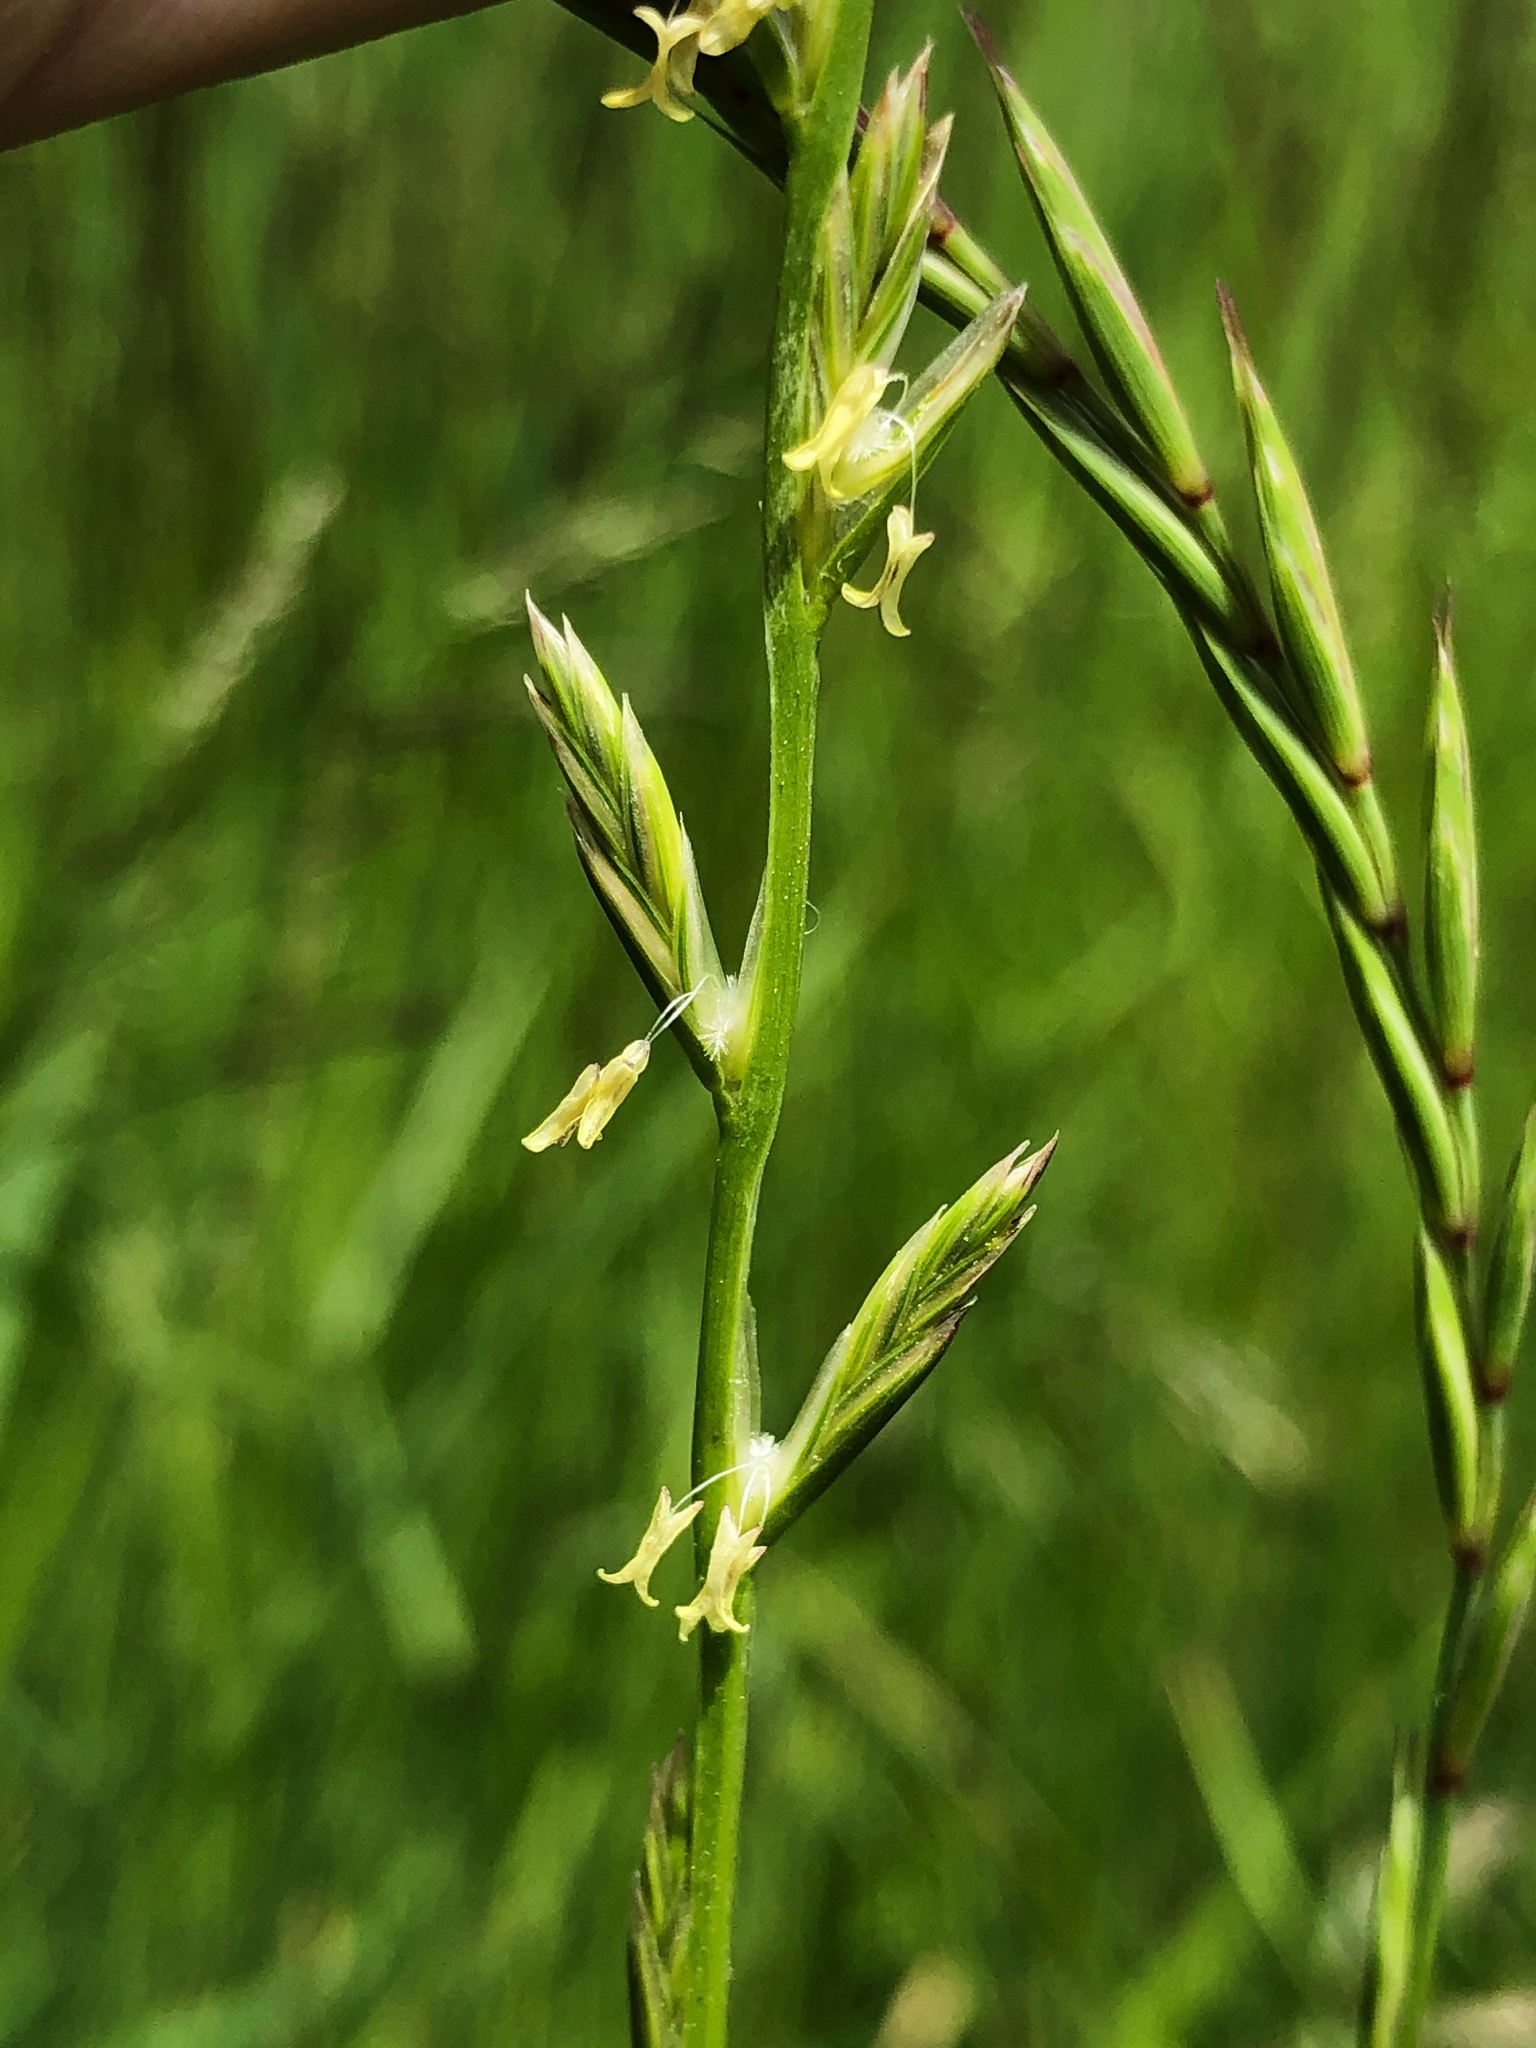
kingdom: Plantae
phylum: Tracheophyta
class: Liliopsida
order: Poales
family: Poaceae
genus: Lolium
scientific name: Lolium perenne
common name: Perennial ryegrass
